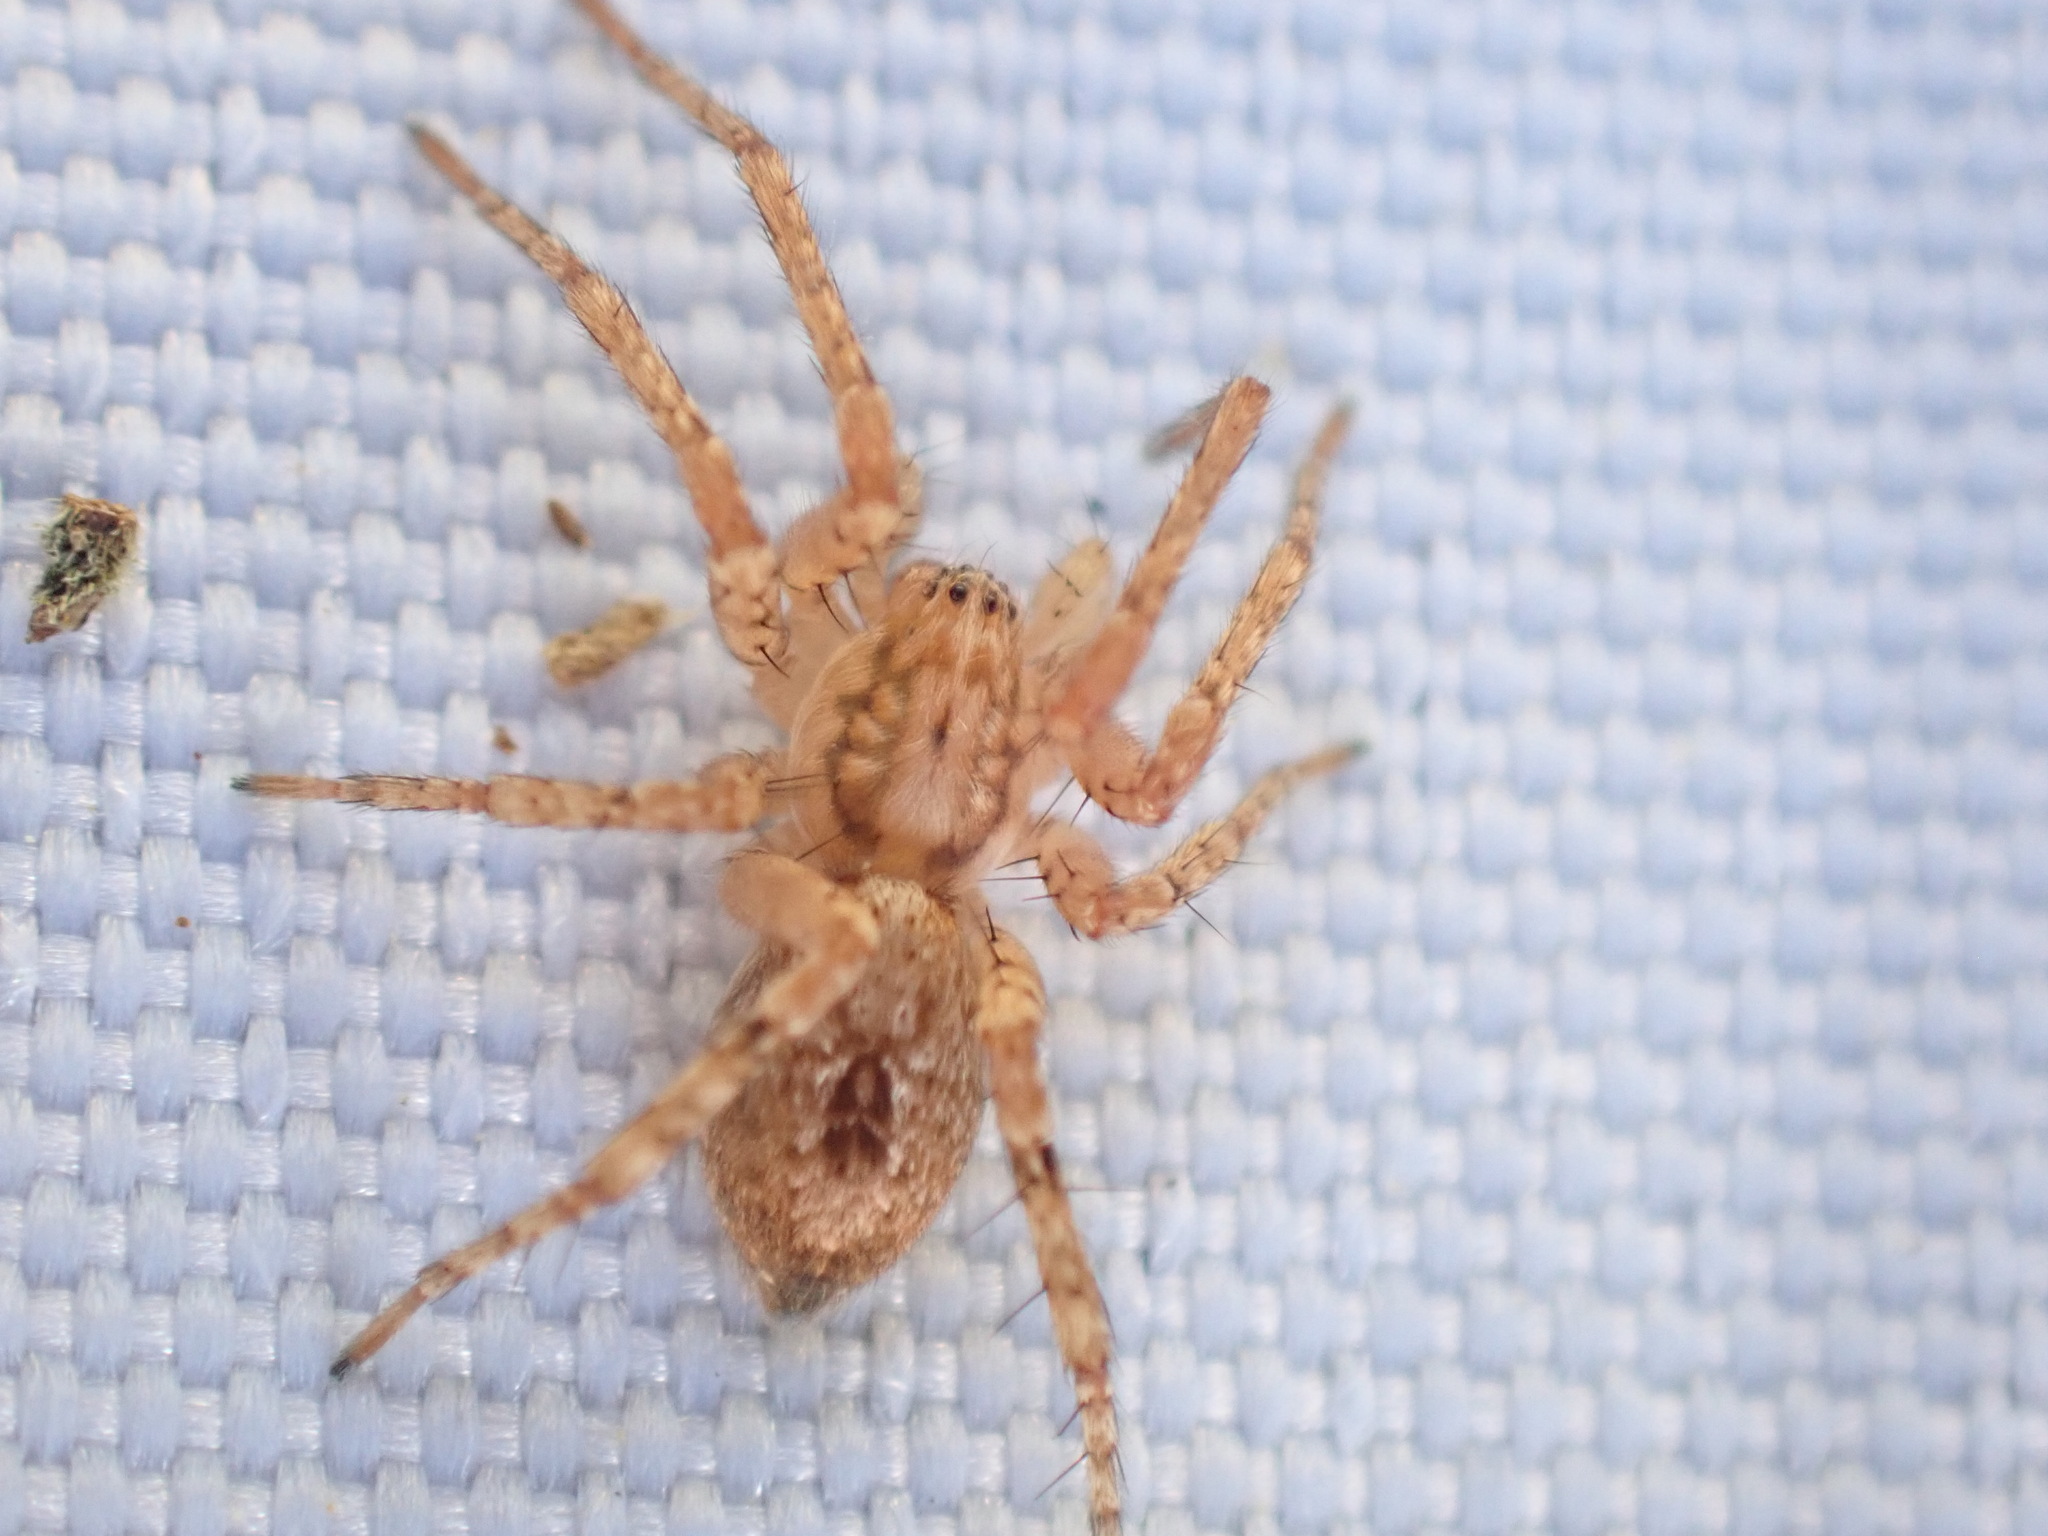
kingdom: Animalia
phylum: Arthropoda
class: Arachnida
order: Araneae
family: Anyphaenidae
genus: Anyphaena
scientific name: Anyphaena
